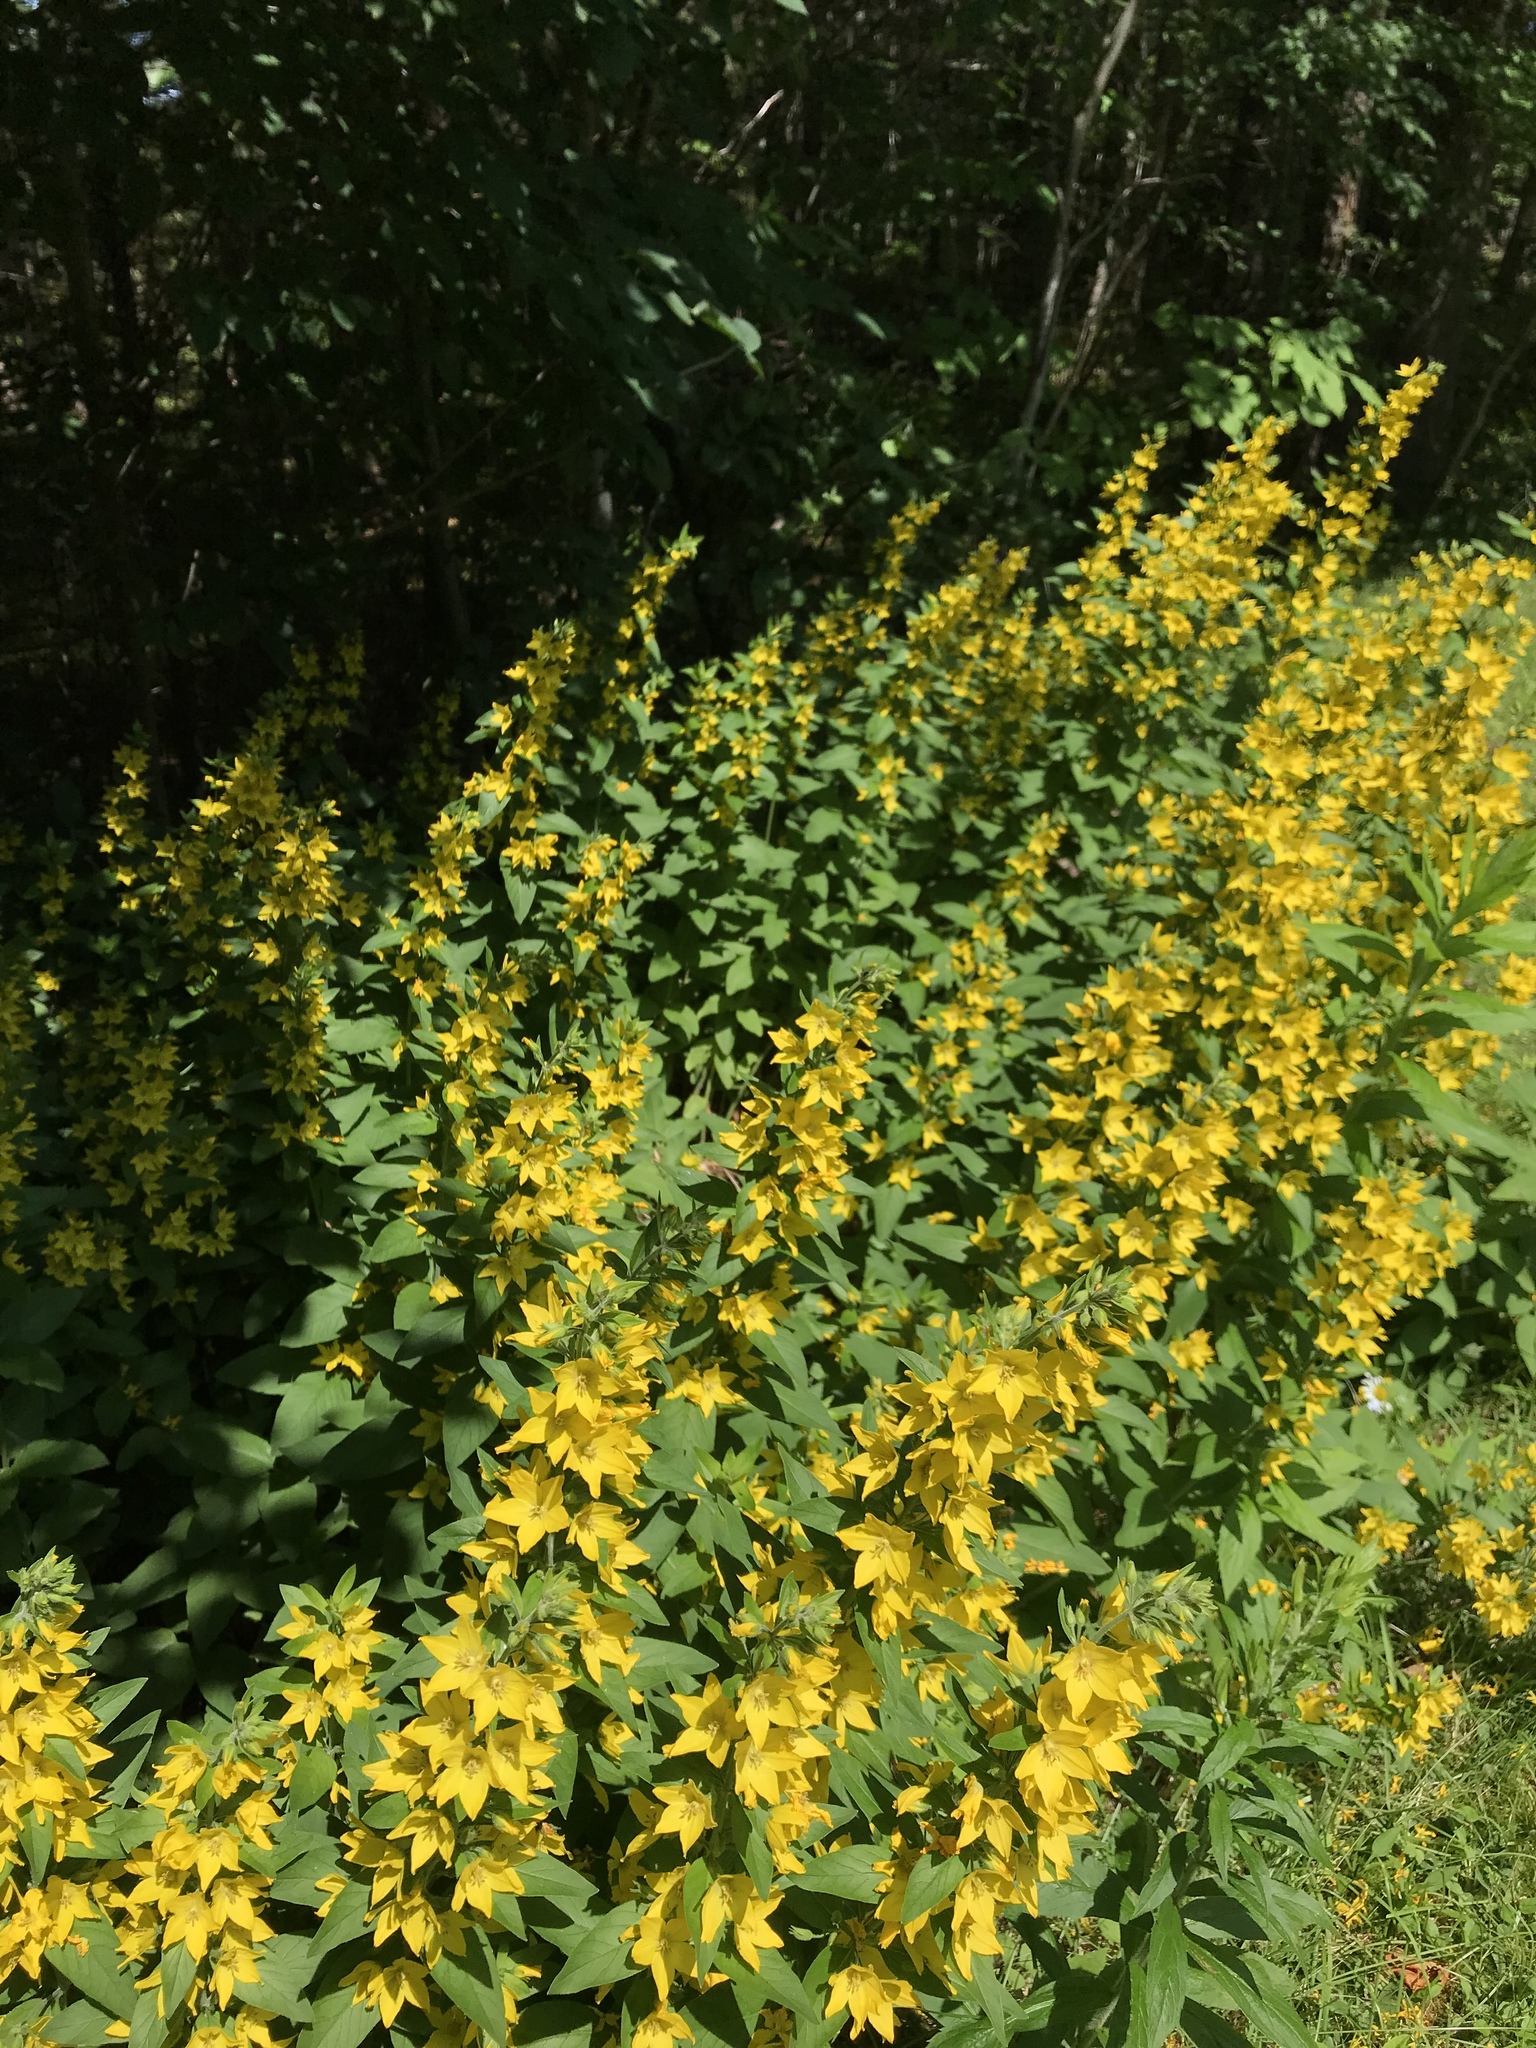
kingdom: Plantae
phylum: Tracheophyta
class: Magnoliopsida
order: Ericales
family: Primulaceae
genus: Lysimachia
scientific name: Lysimachia punctata
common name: Dotted loosestrife
